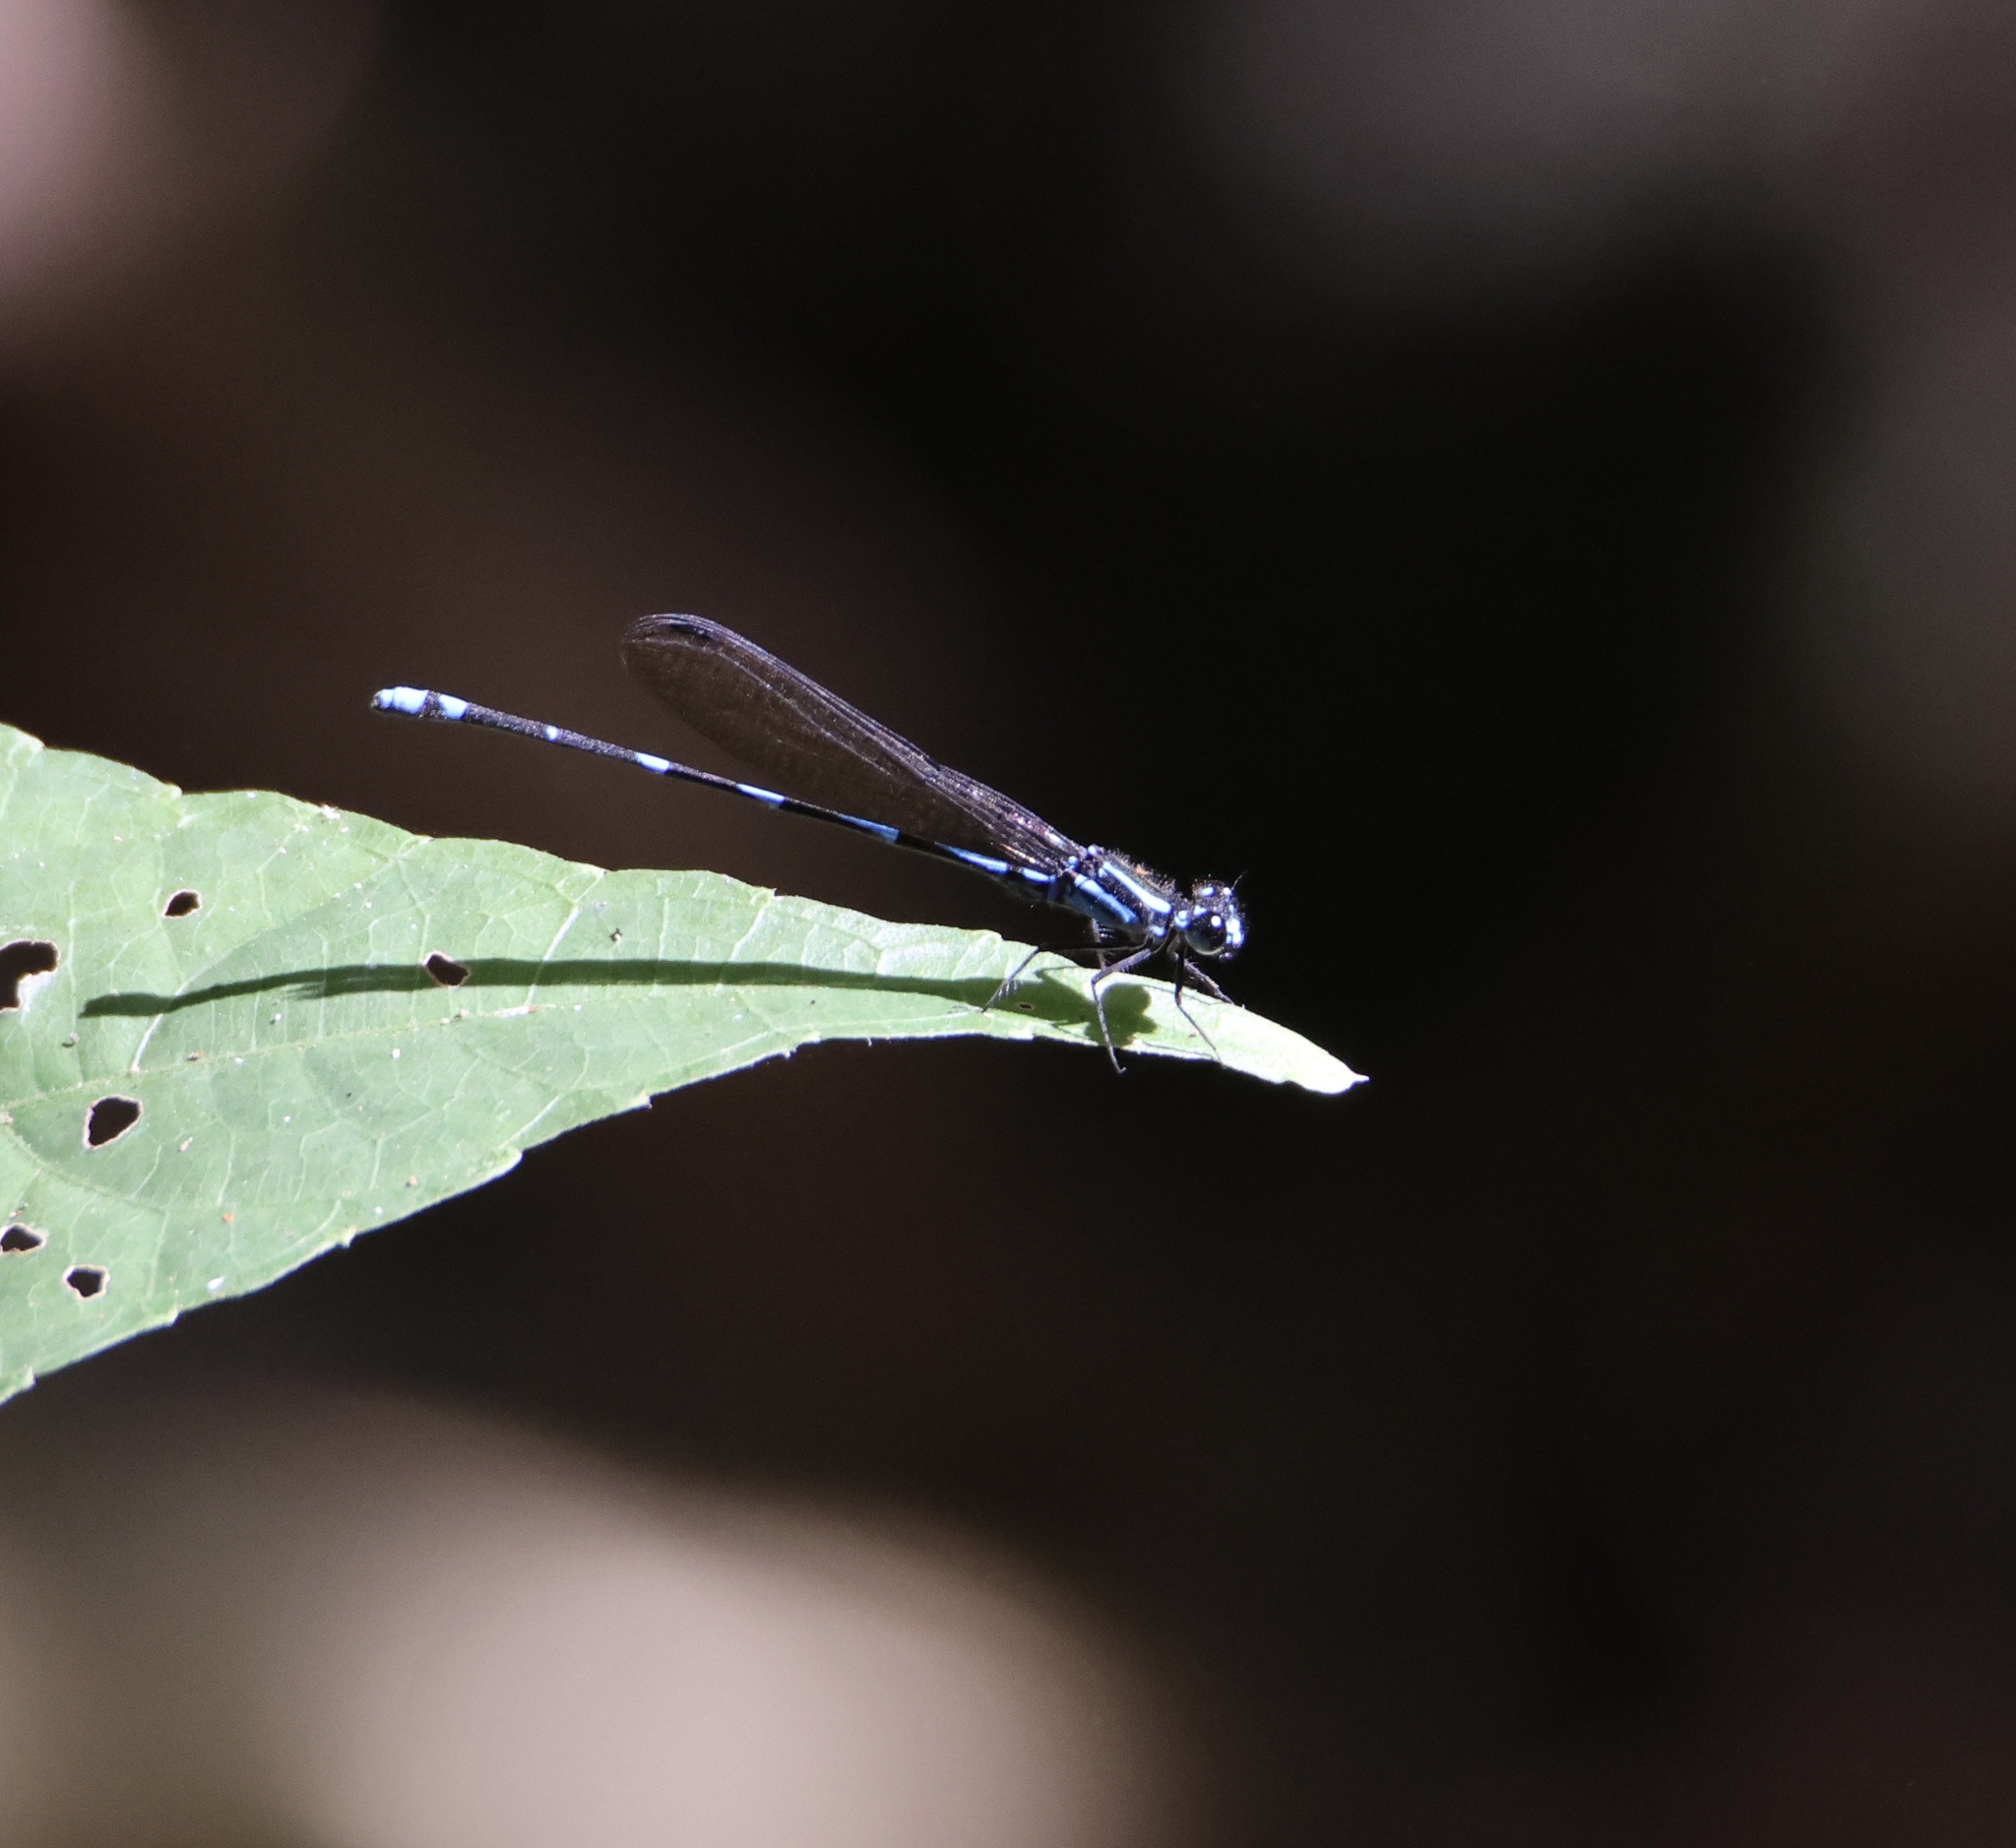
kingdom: Animalia
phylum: Arthropoda
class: Insecta
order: Odonata
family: Coenagrionidae
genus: Argia
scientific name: Argia adamsi
